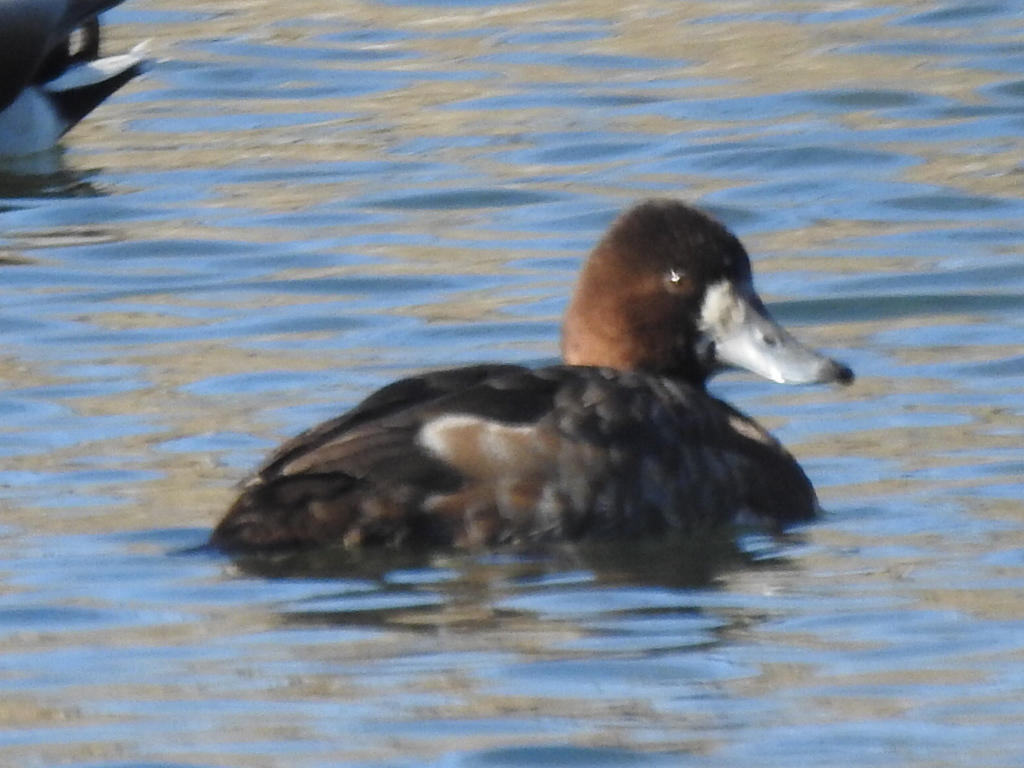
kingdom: Animalia
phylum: Chordata
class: Aves
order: Anseriformes
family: Anatidae
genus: Aythya
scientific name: Aythya affinis
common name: Lesser scaup
